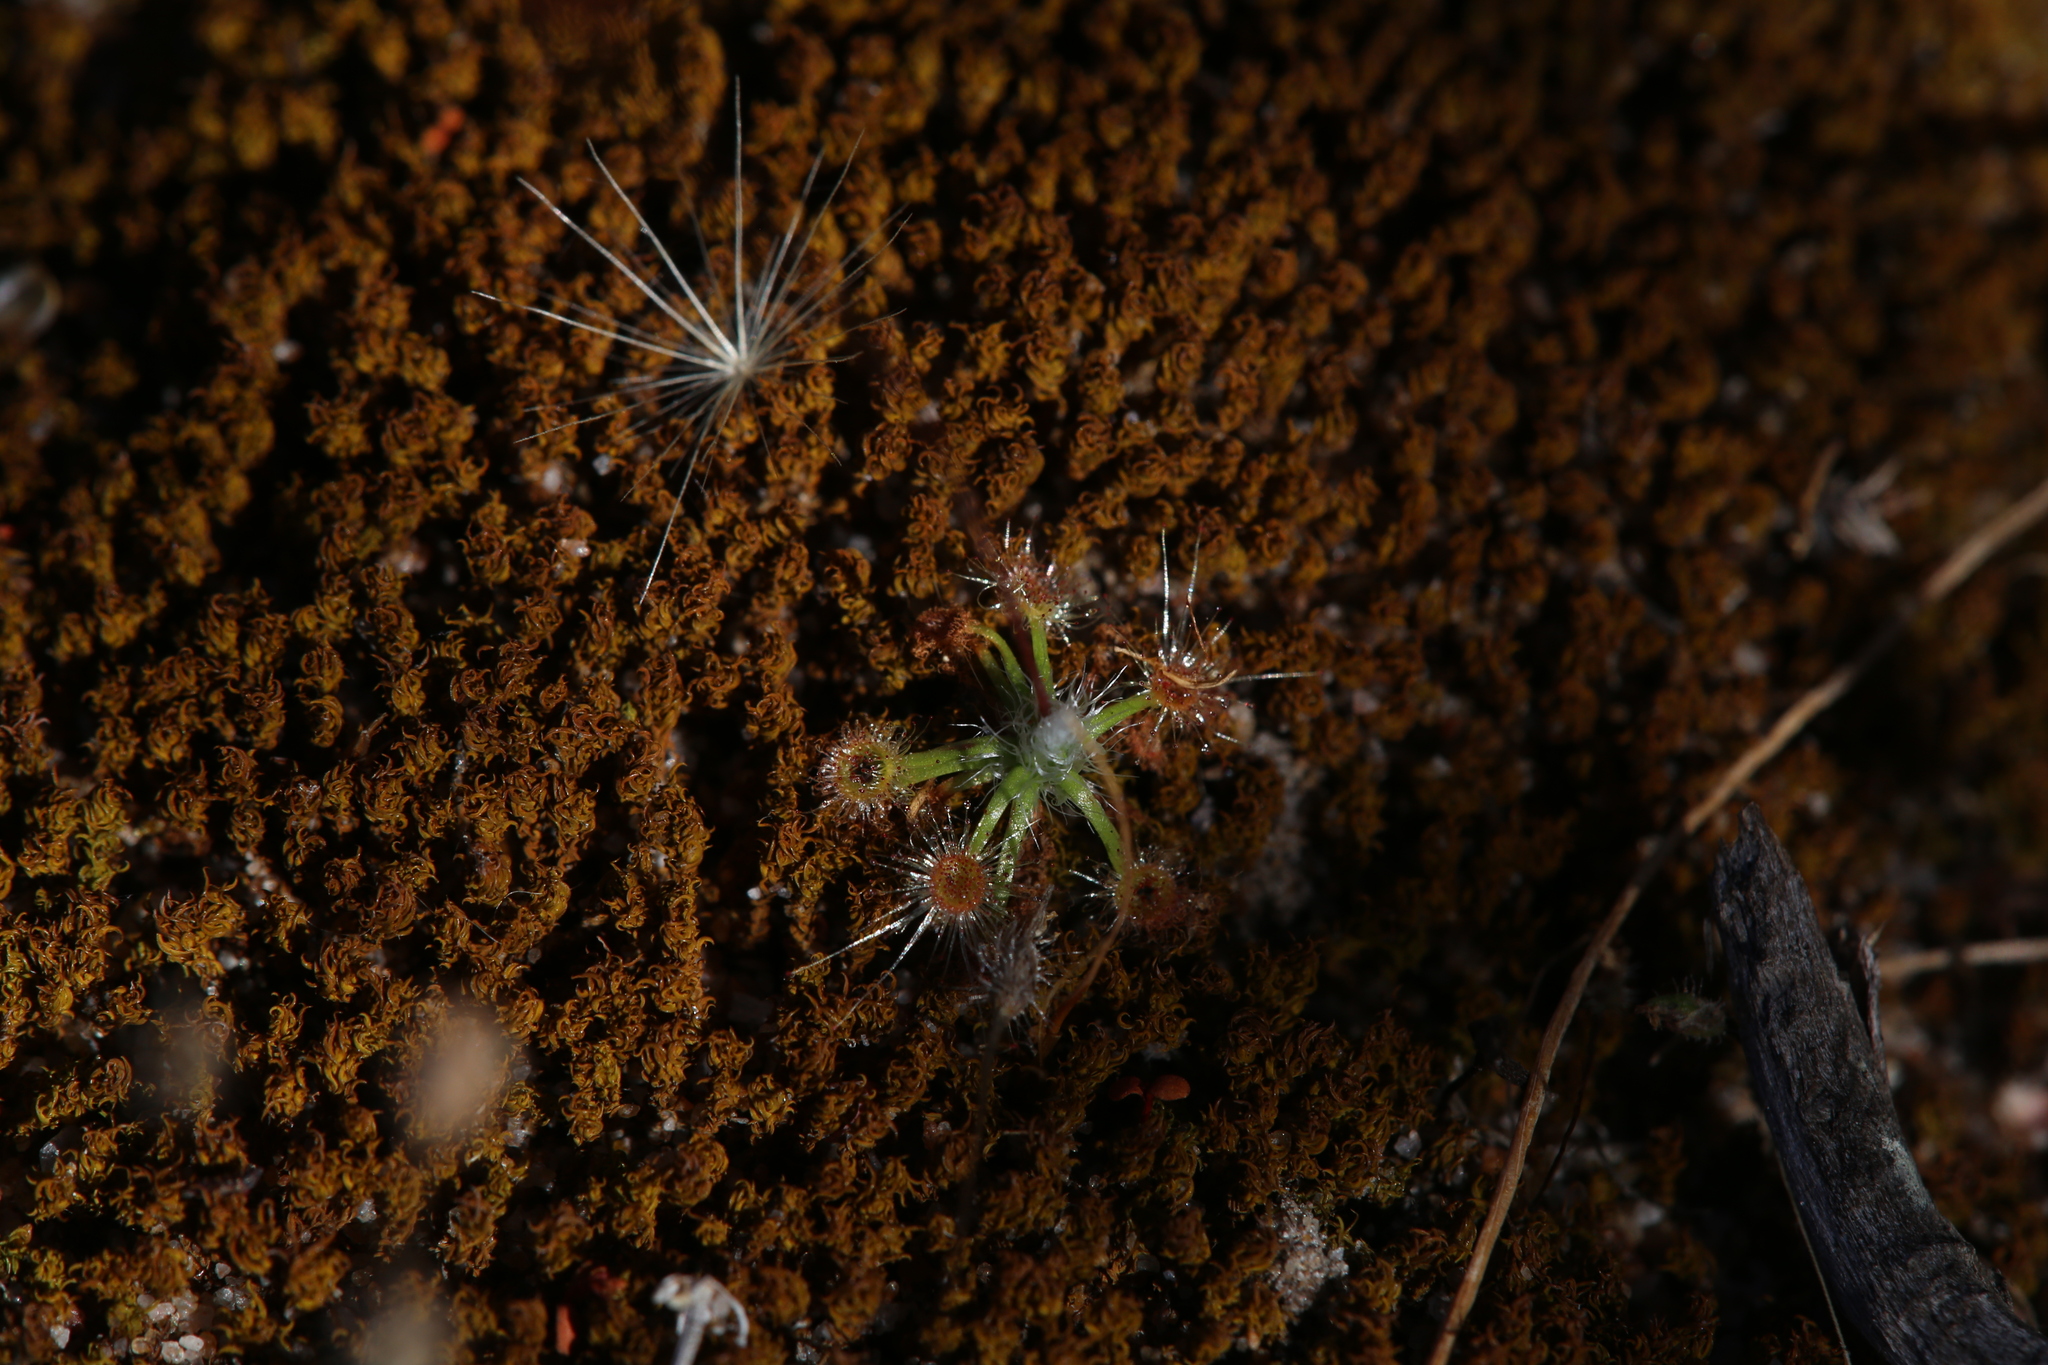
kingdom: Plantae
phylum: Tracheophyta
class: Magnoliopsida
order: Caryophyllales
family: Droseraceae
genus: Drosera
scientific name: Drosera echinoblastus
